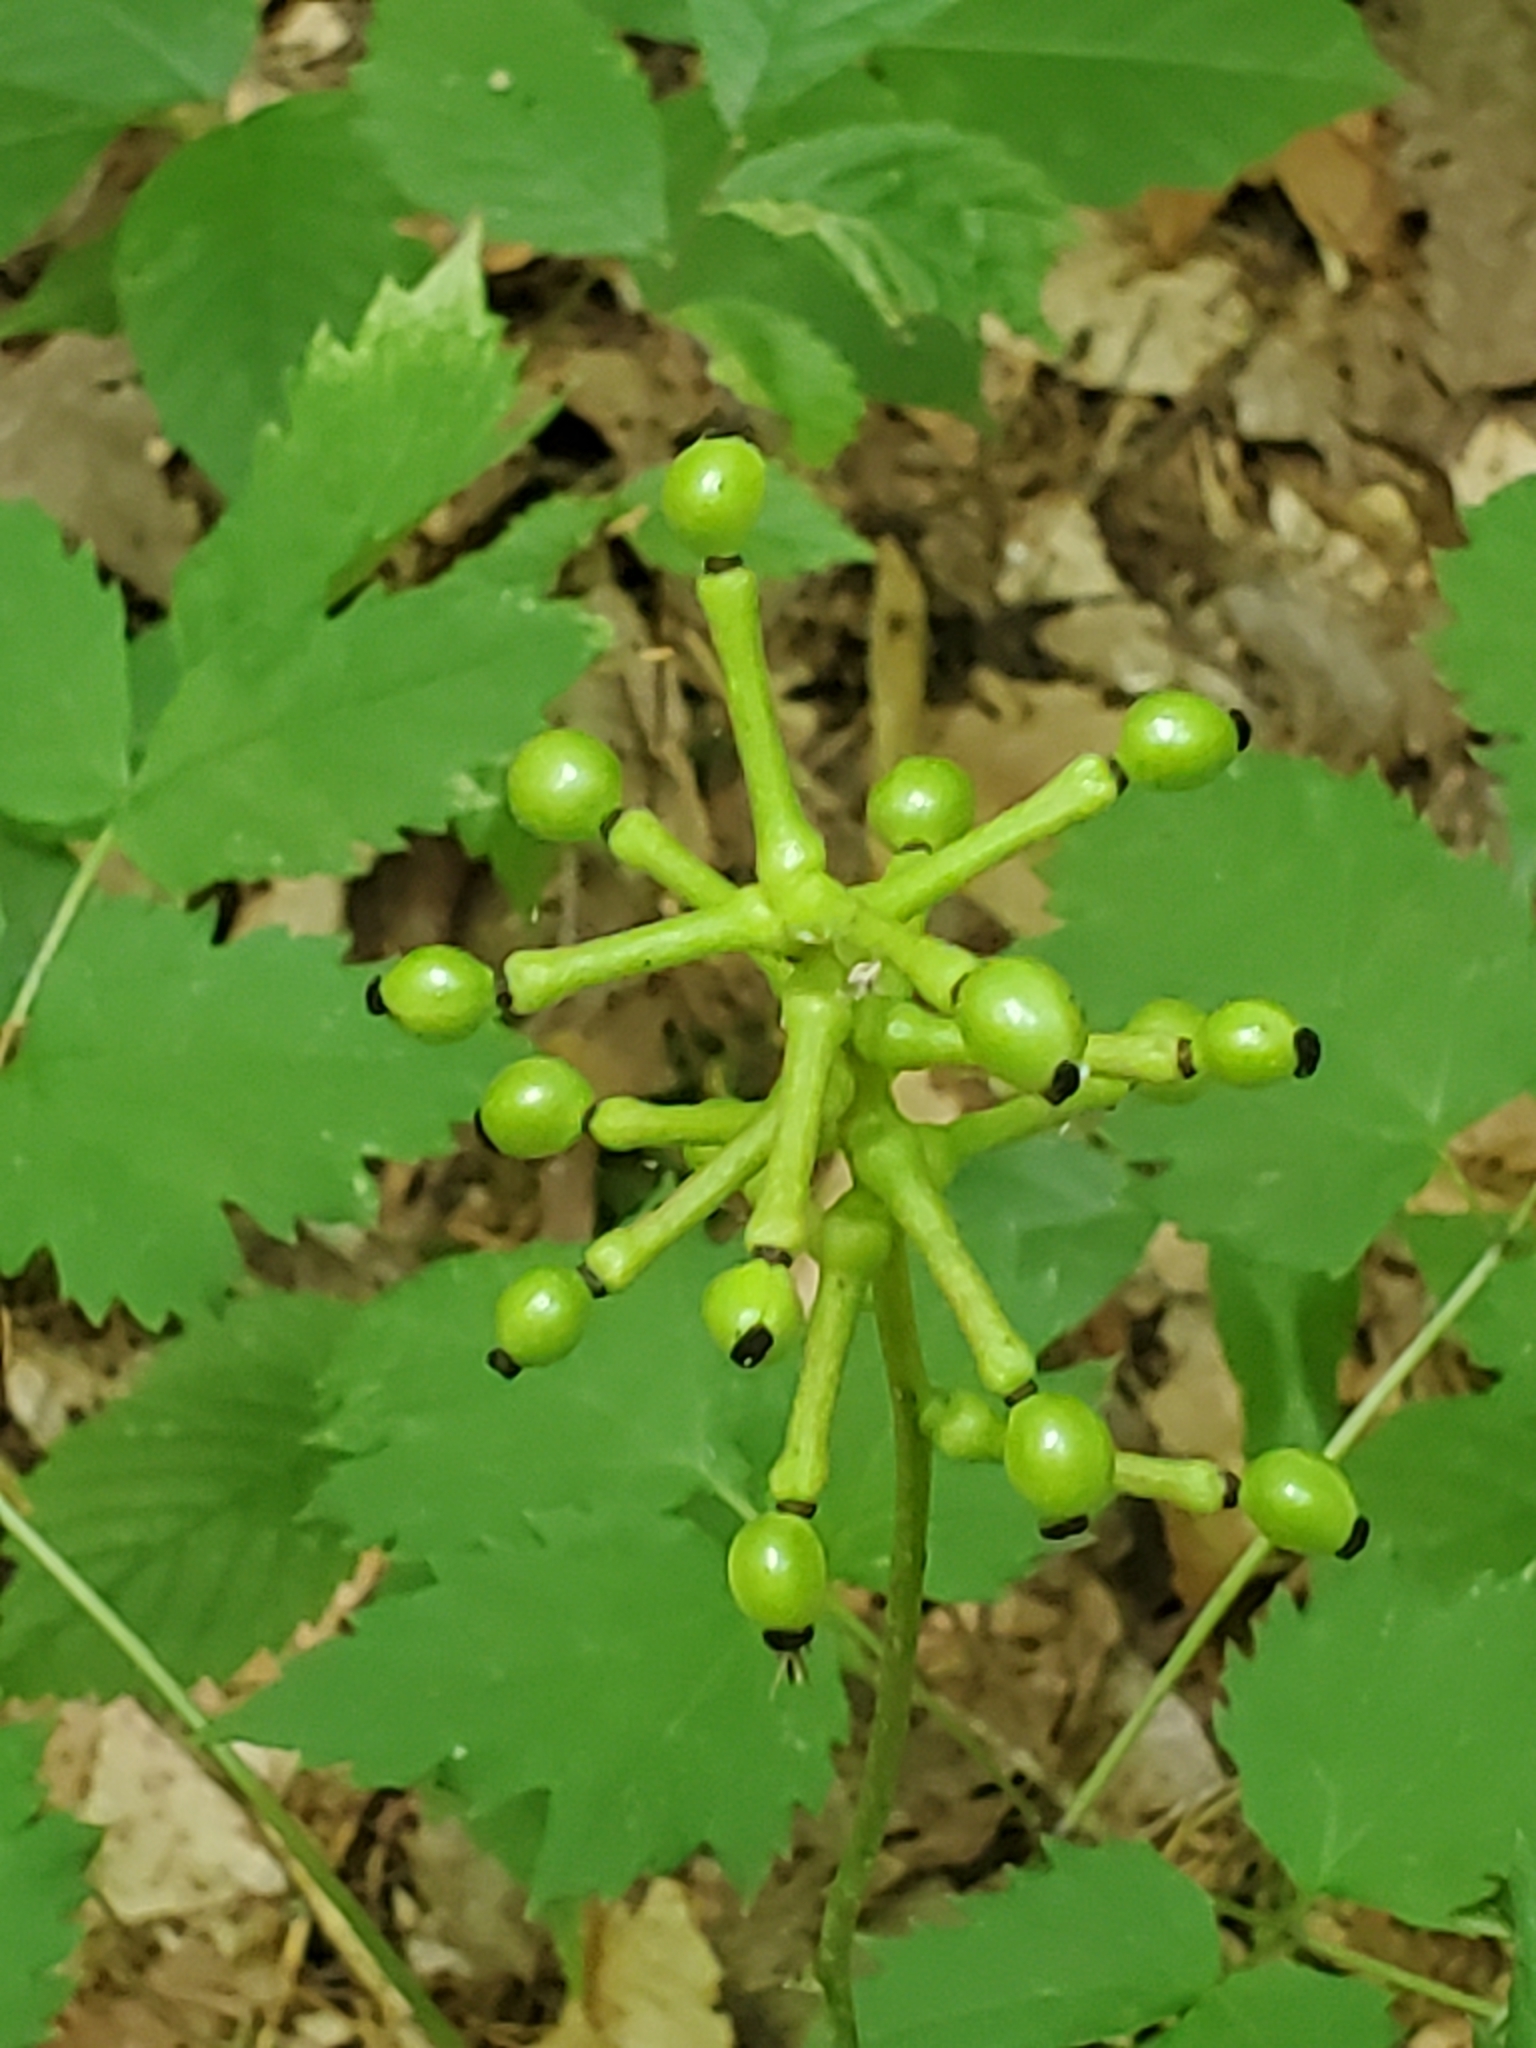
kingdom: Plantae
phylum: Tracheophyta
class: Magnoliopsida
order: Ranunculales
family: Ranunculaceae
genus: Actaea
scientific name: Actaea pachypoda
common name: Doll's-eyes
